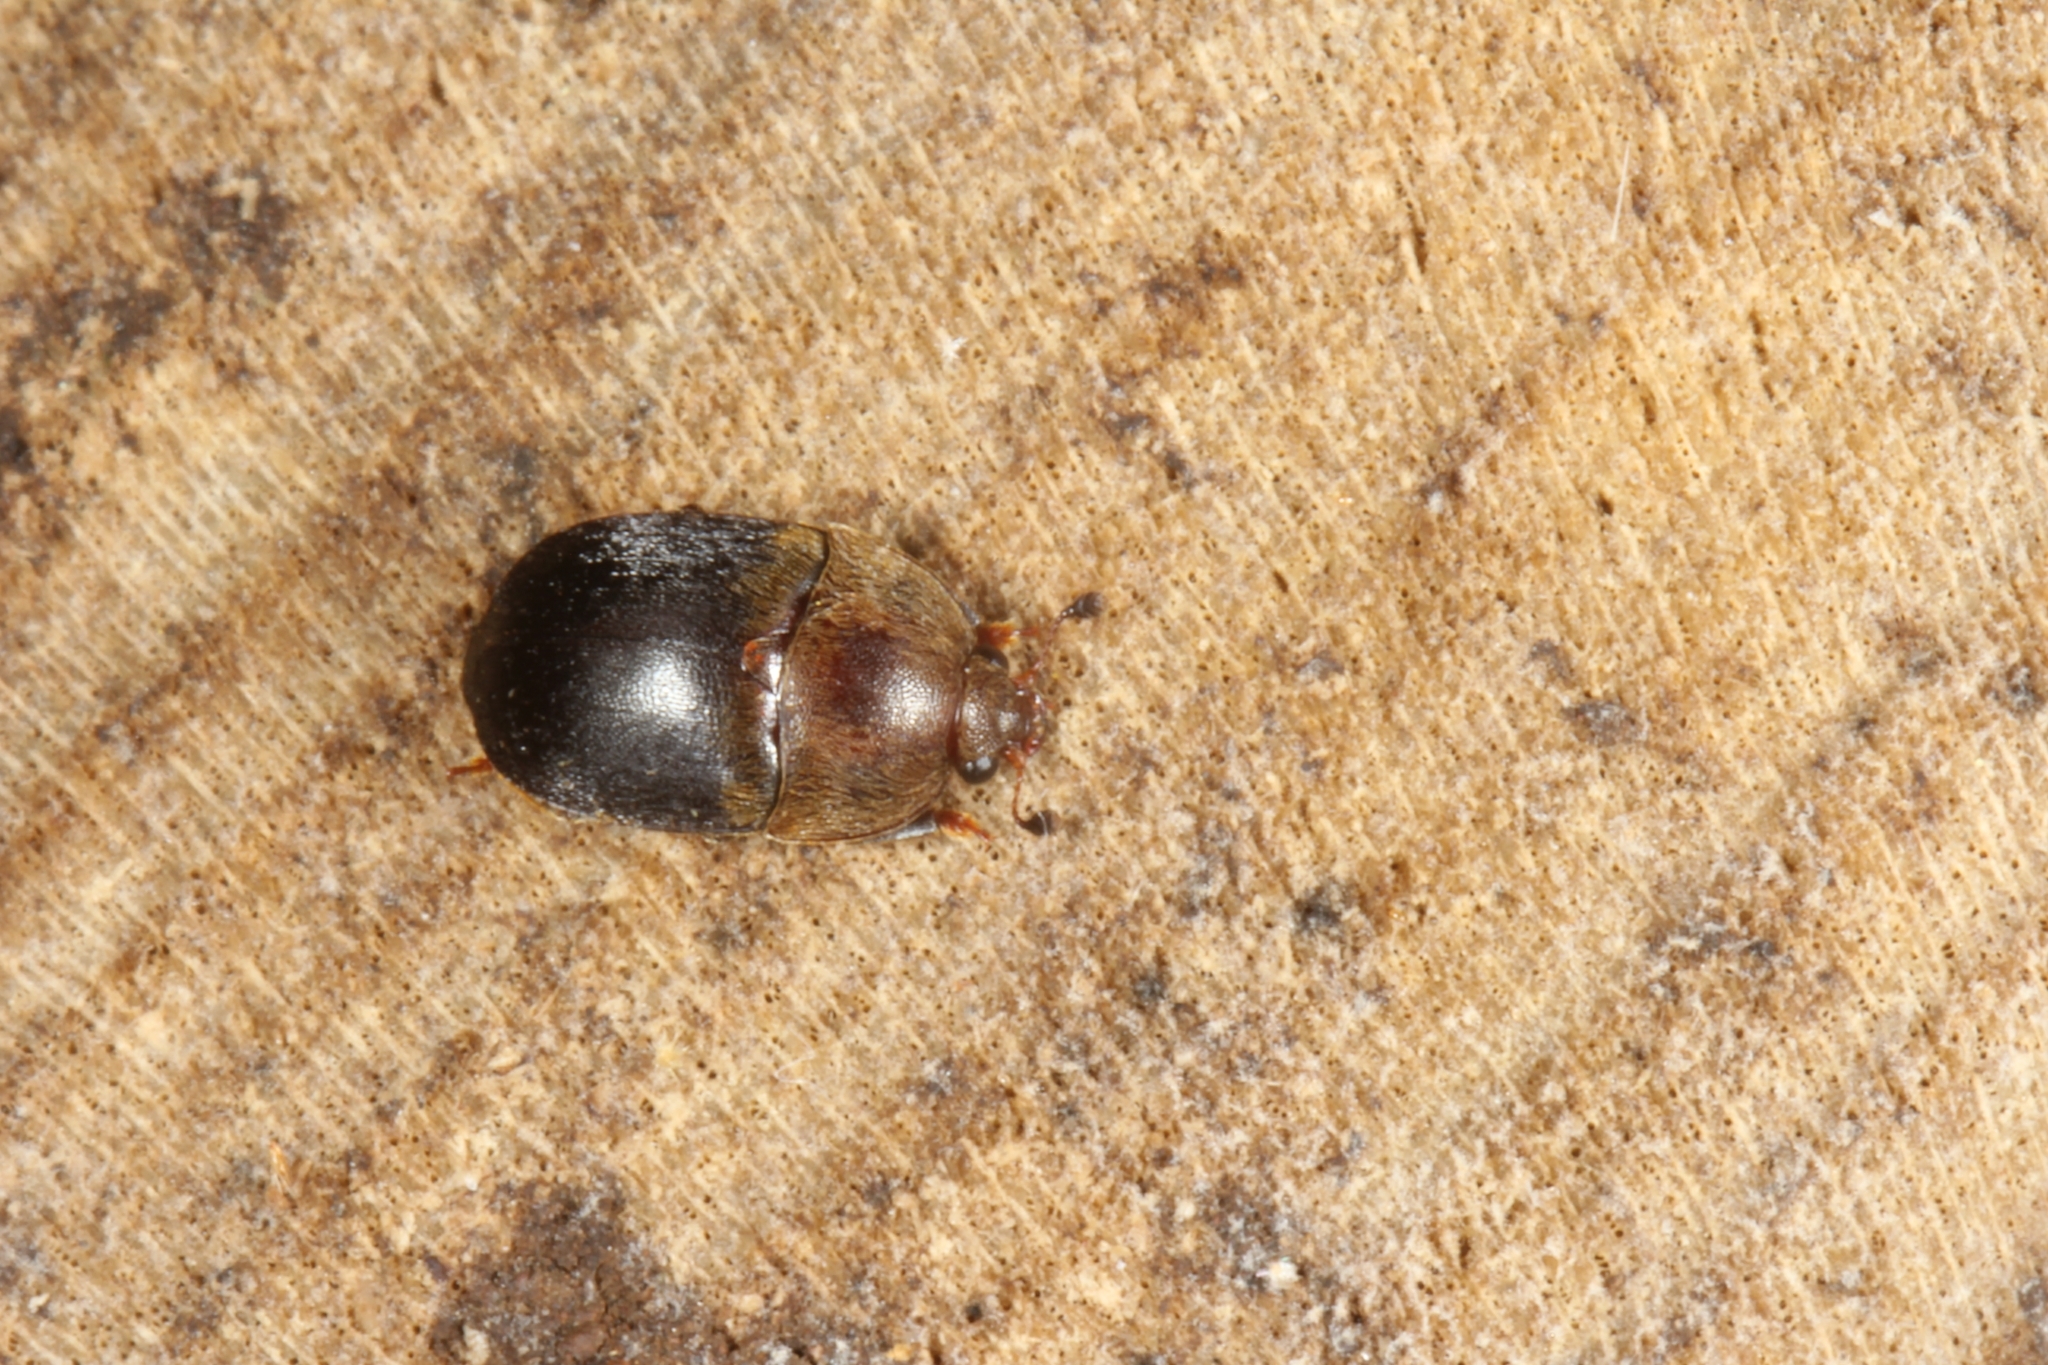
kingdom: Animalia
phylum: Arthropoda
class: Insecta
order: Coleoptera
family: Nitidulidae
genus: Aethina
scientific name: Aethina
